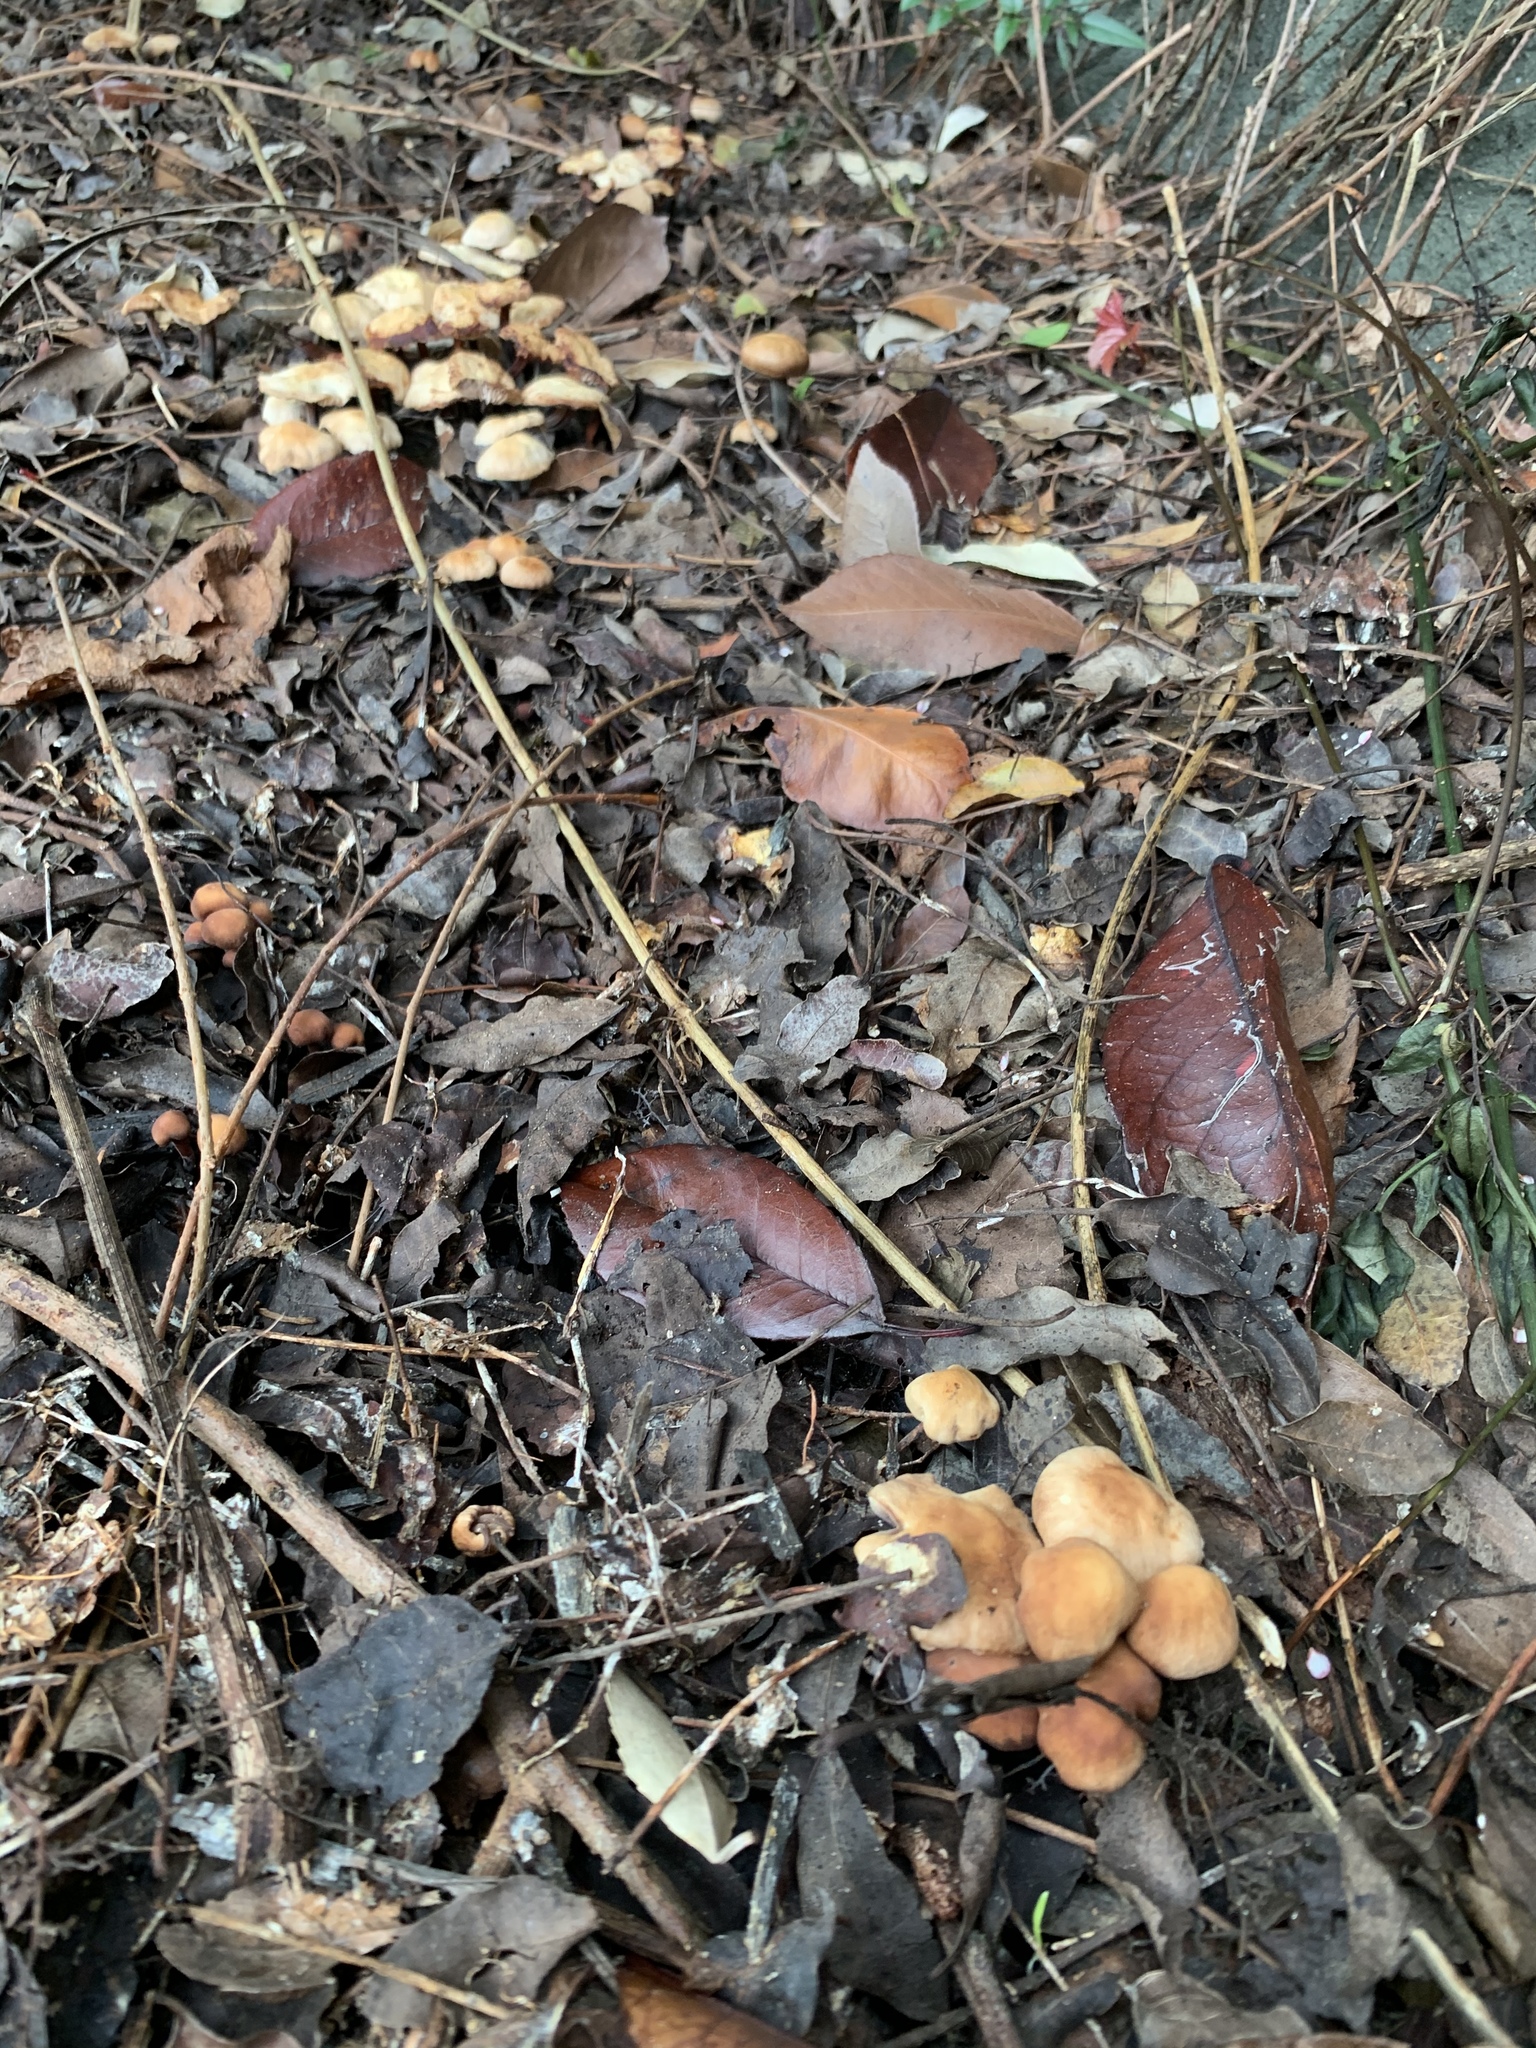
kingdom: Fungi
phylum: Basidiomycota
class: Agaricomycetes
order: Agaricales
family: Omphalotaceae
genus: Gymnopus
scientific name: Gymnopus brassicolens
